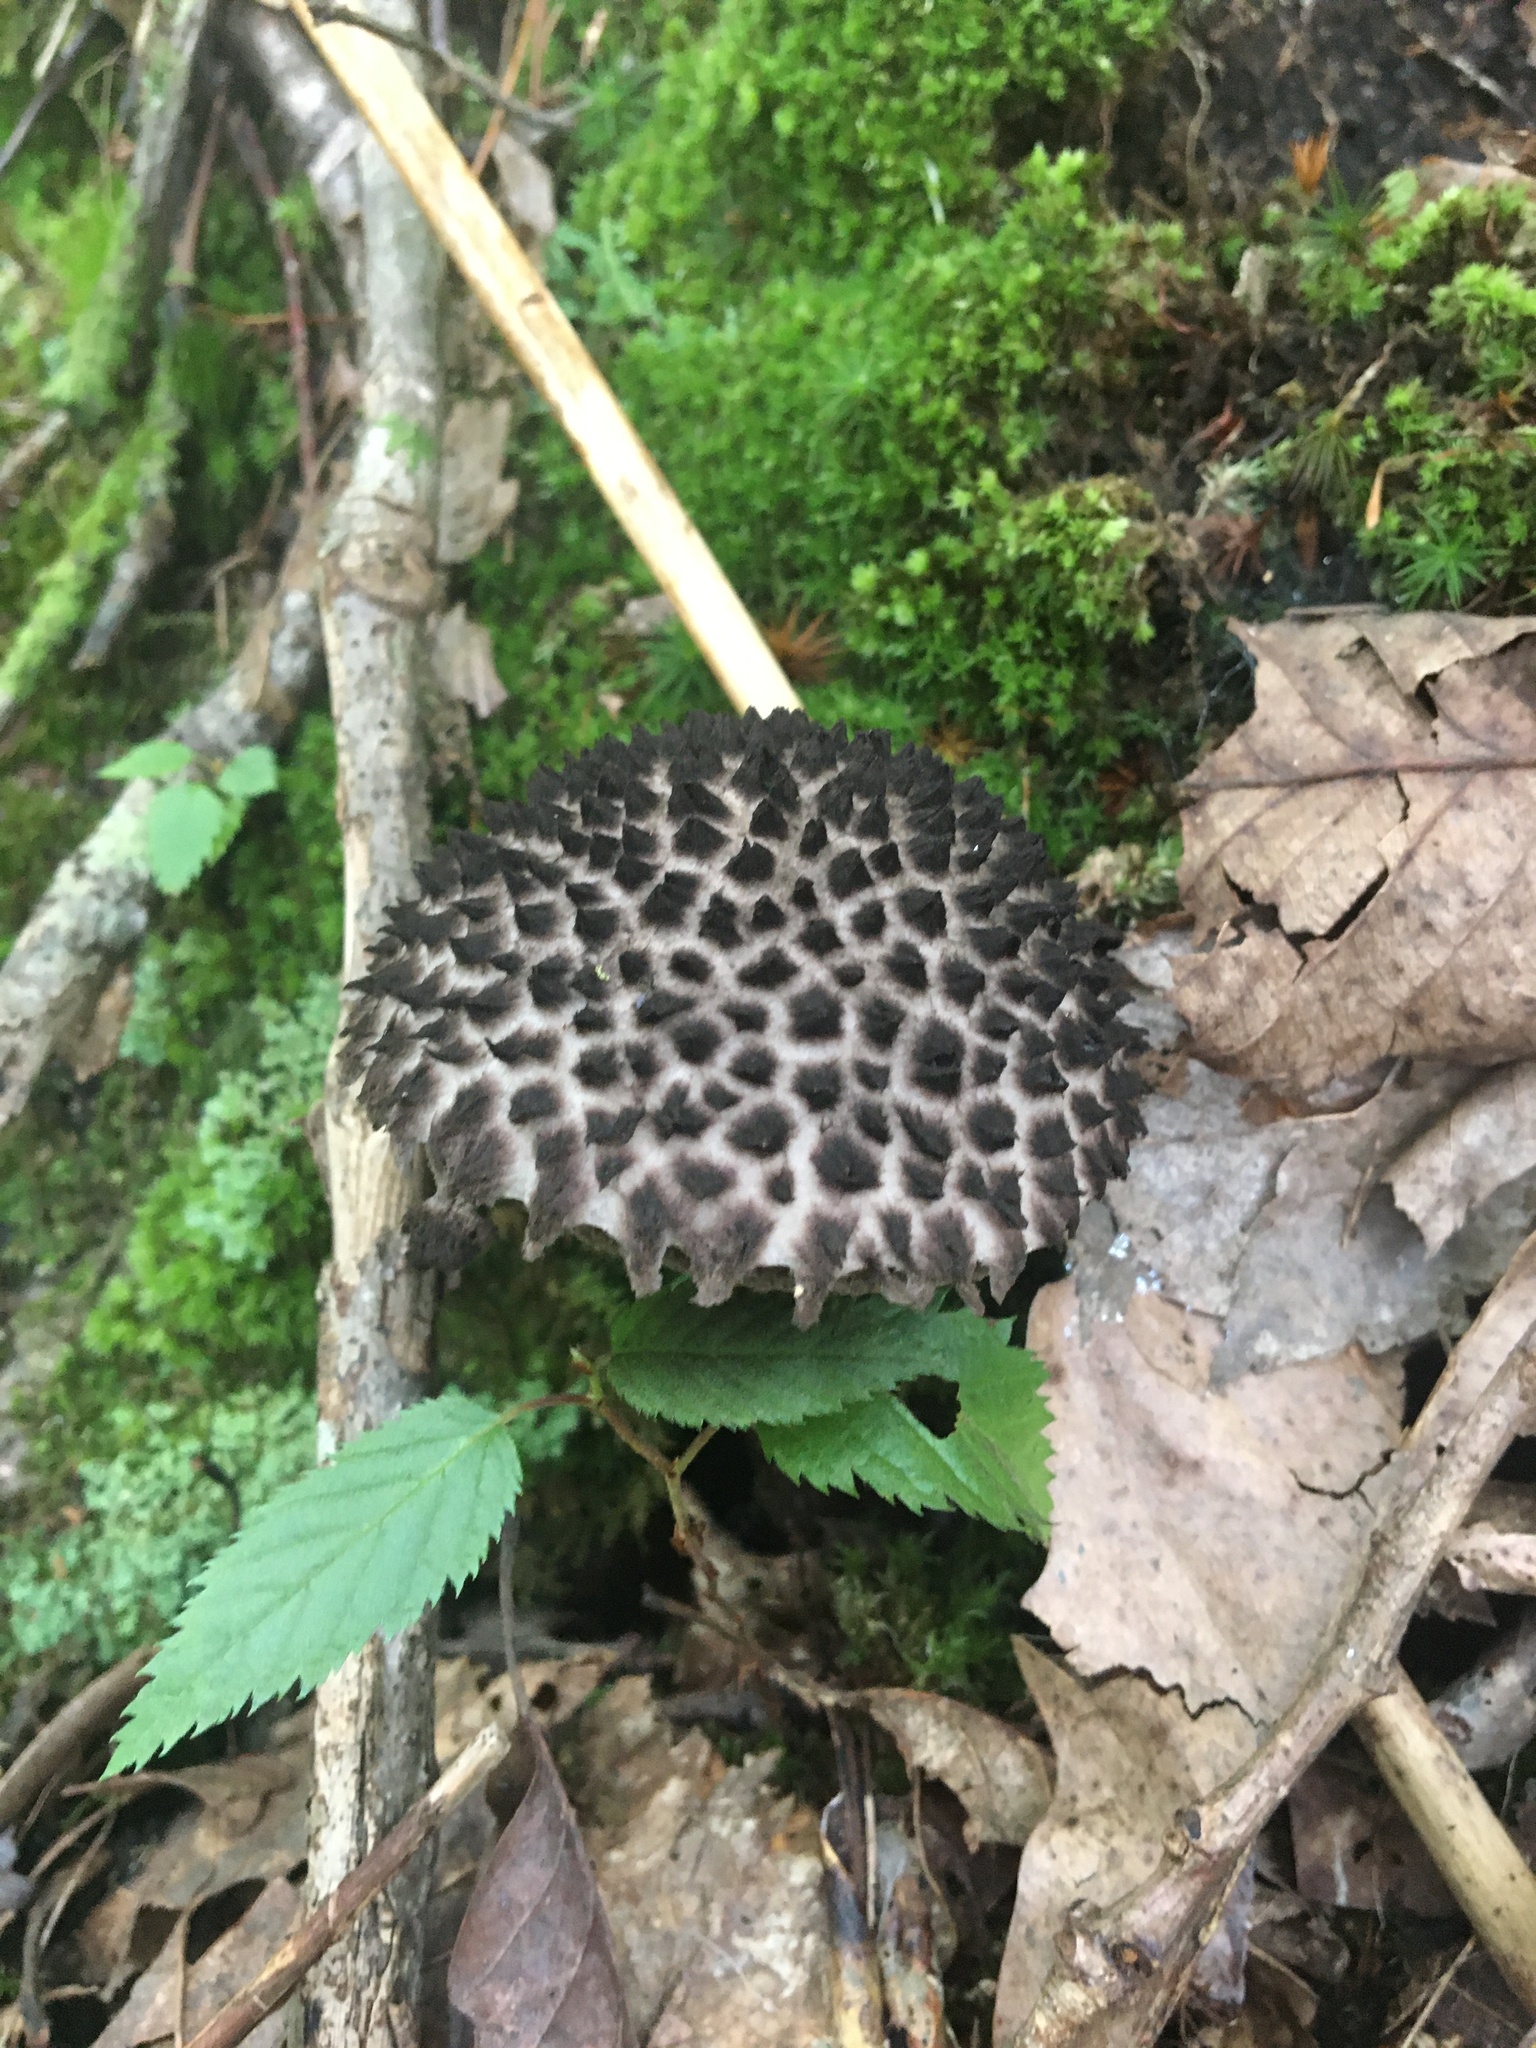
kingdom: Fungi
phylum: Basidiomycota
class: Agaricomycetes
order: Boletales
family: Boletaceae
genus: Strobilomyces
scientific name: Strobilomyces strobilaceus
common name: Old man of the woods
